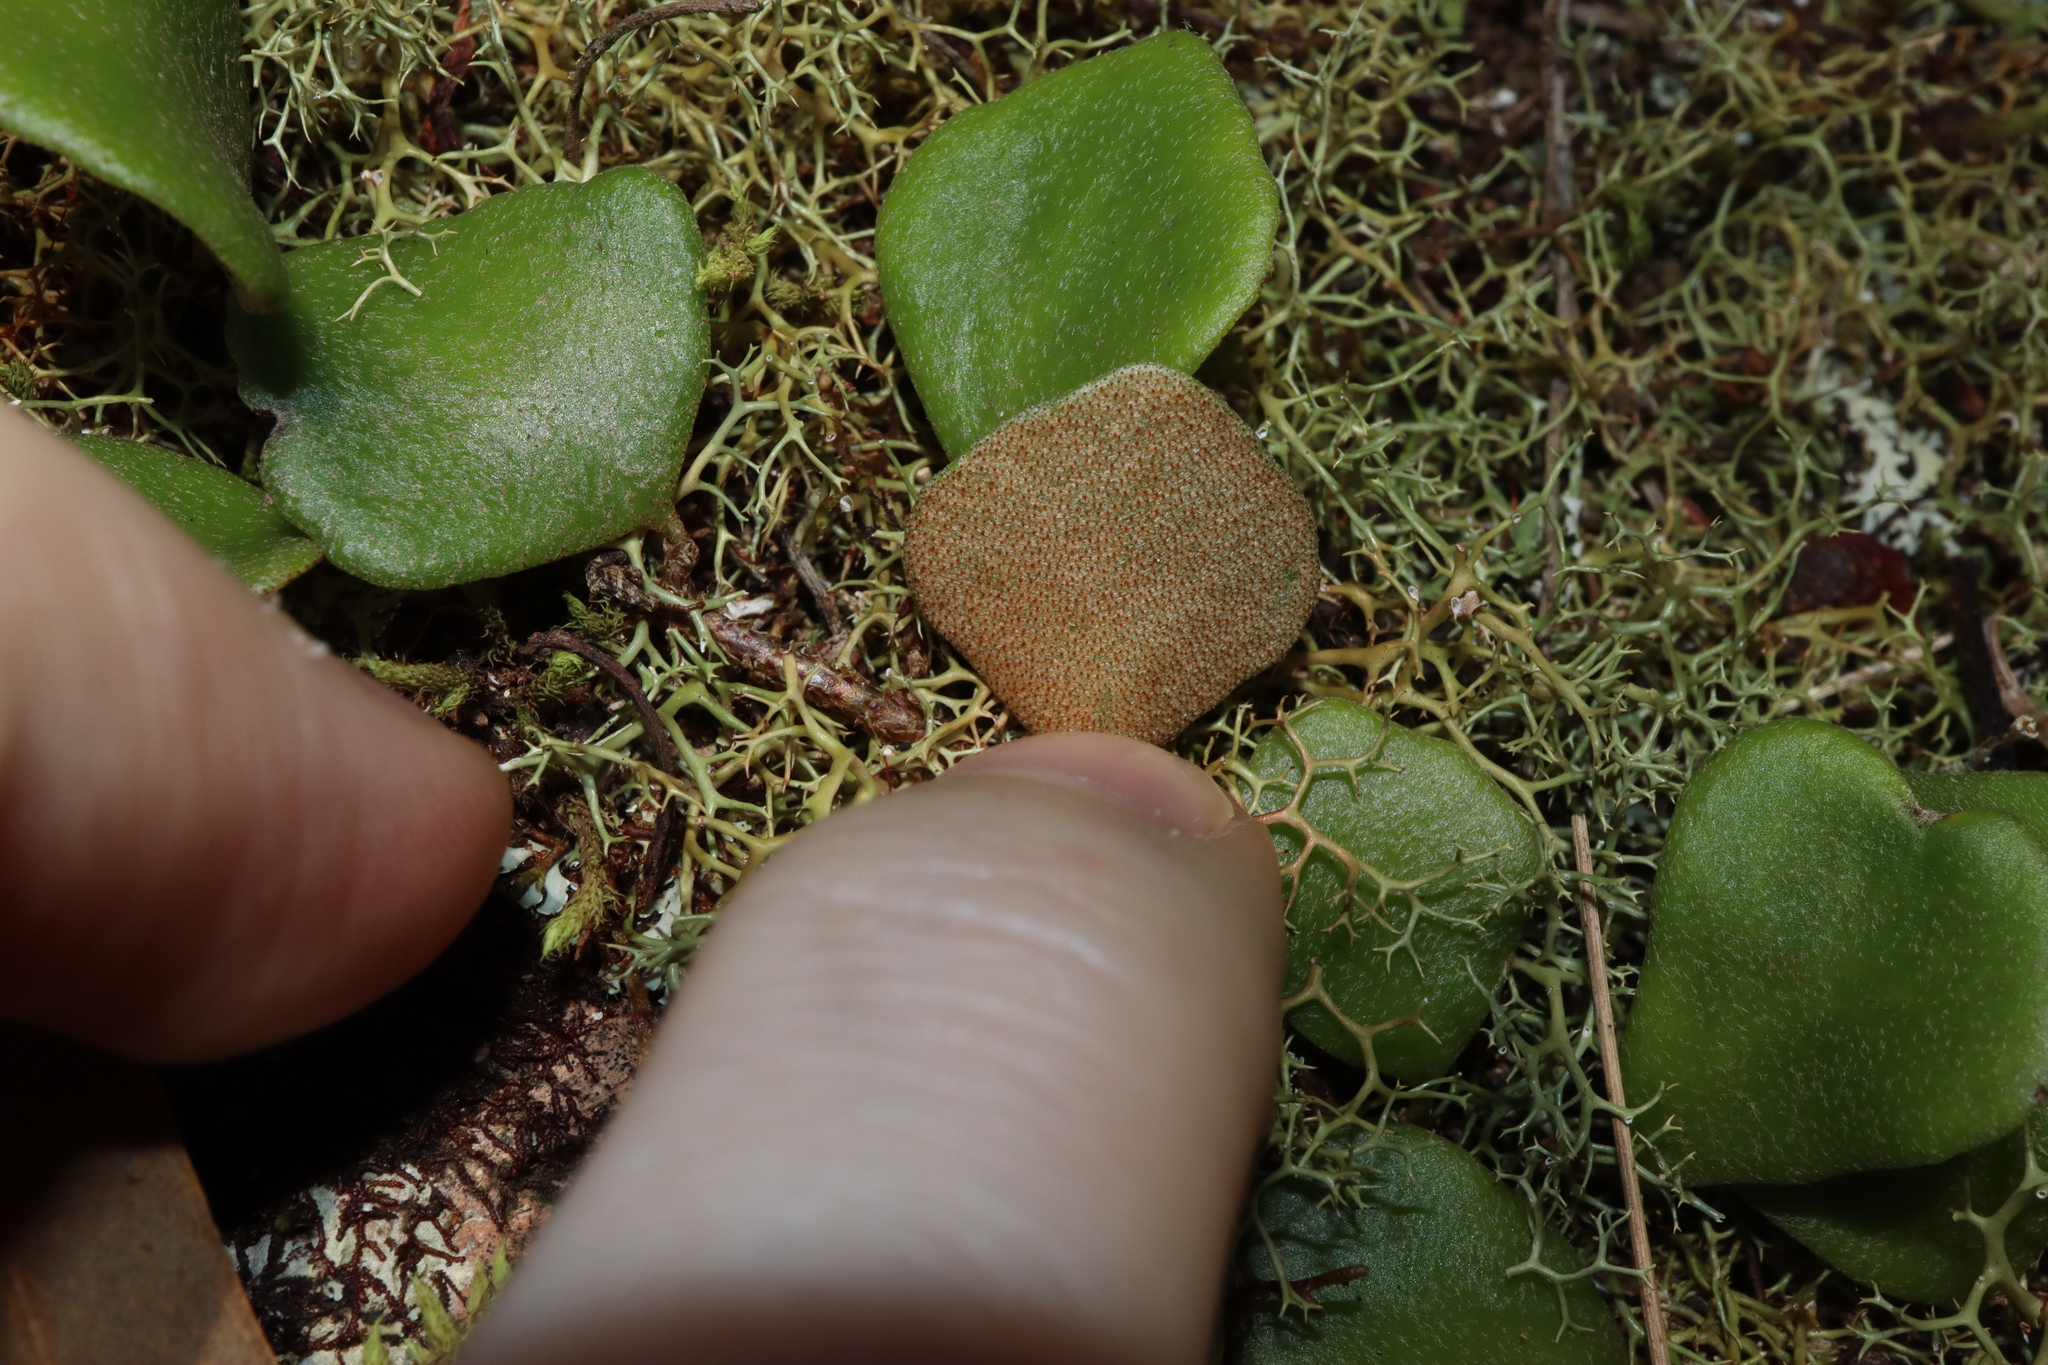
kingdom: Plantae
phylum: Tracheophyta
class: Polypodiopsida
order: Polypodiales
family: Polypodiaceae
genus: Pyrrosia
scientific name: Pyrrosia rupestris
